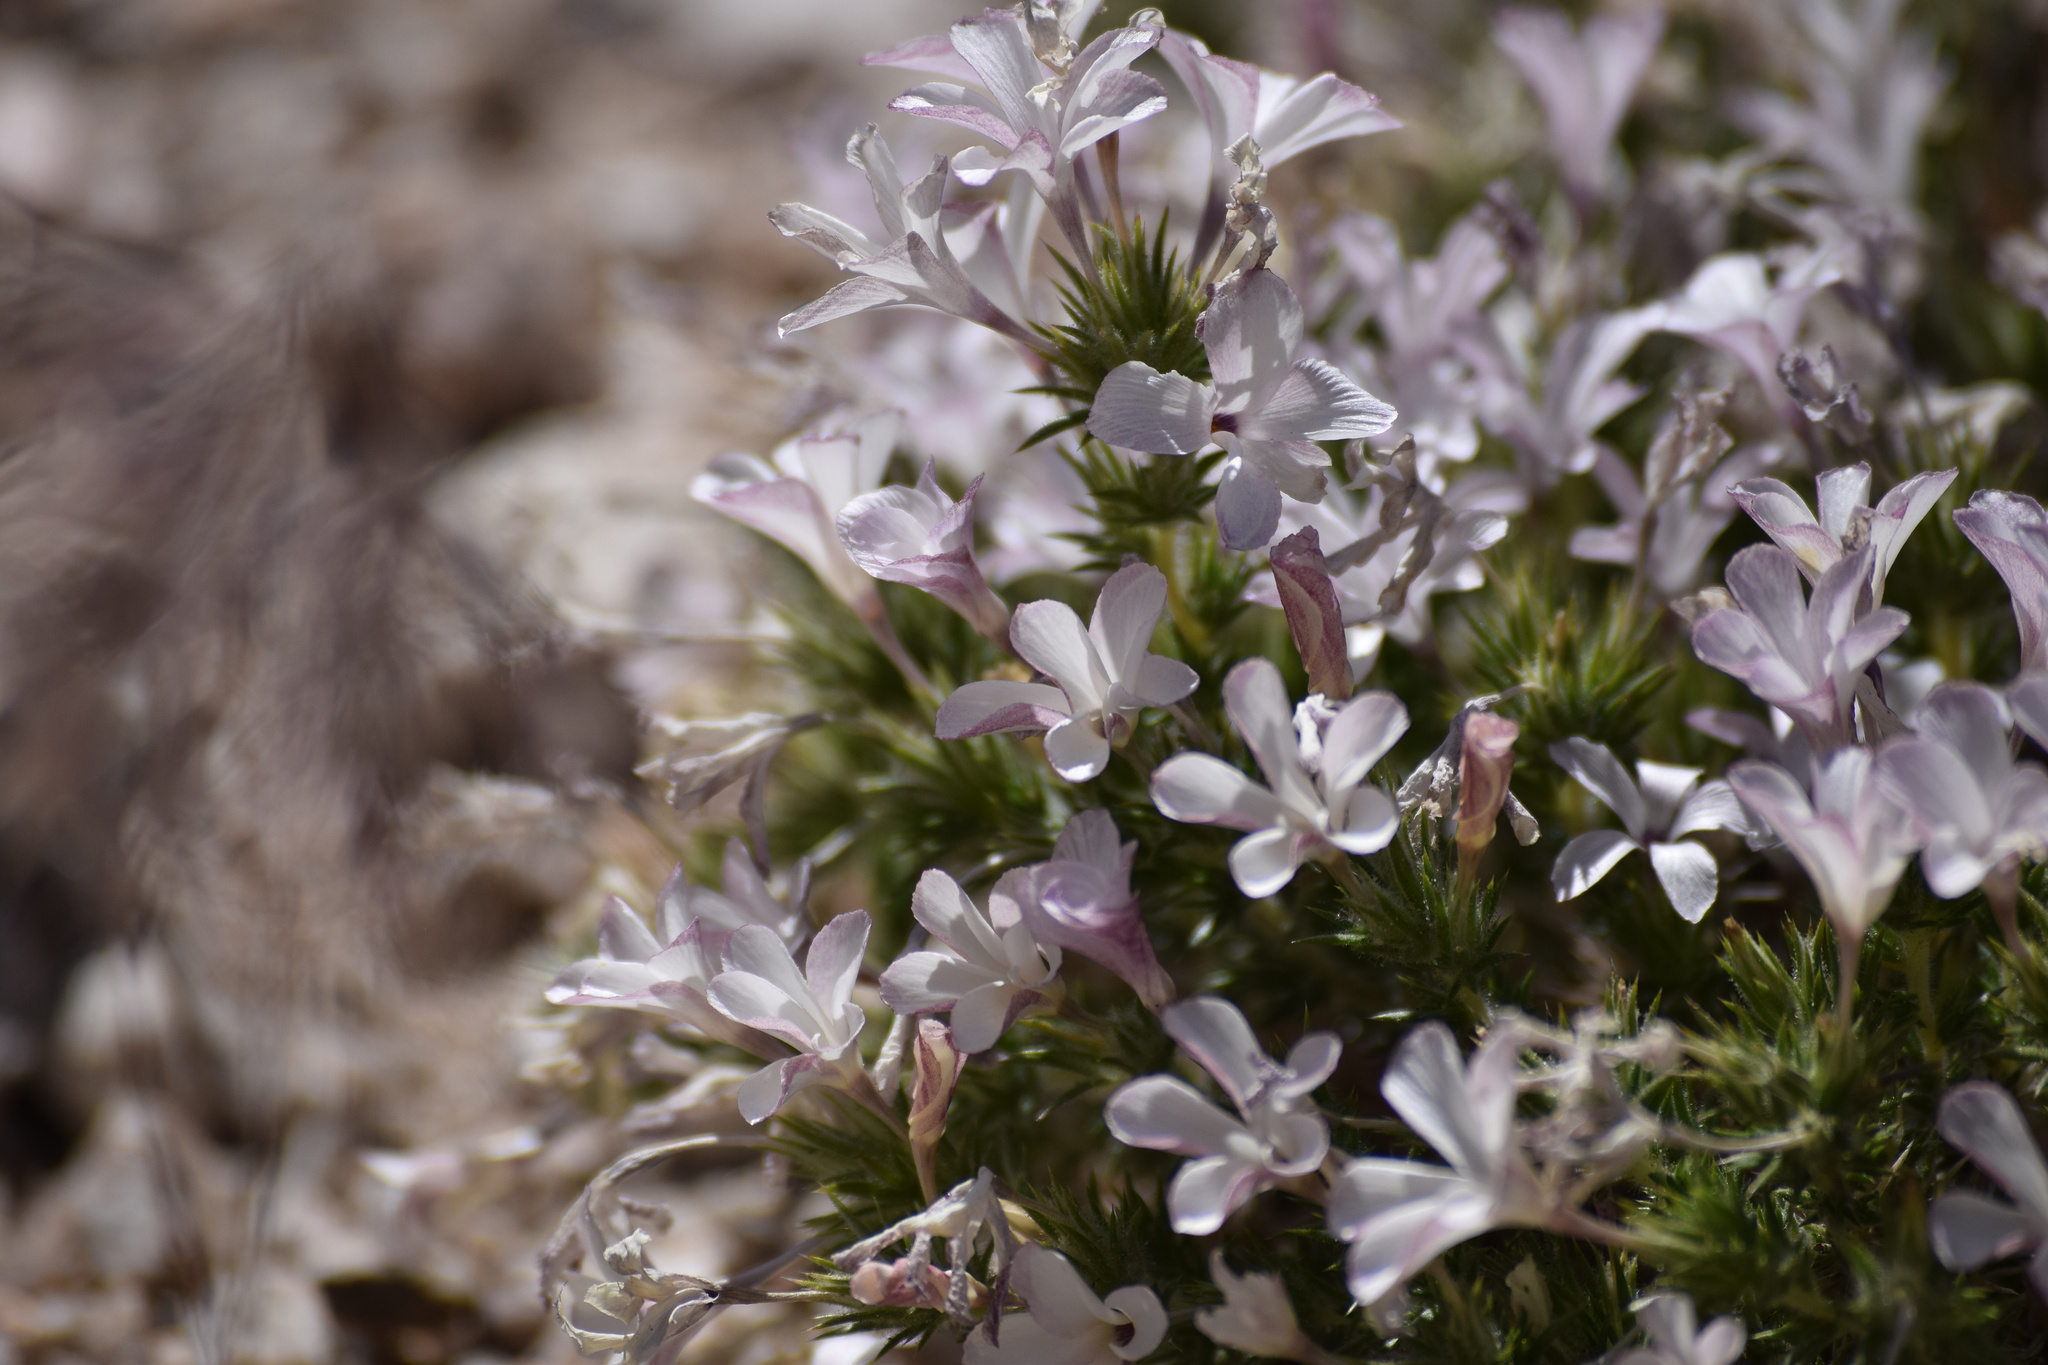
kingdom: Plantae
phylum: Tracheophyta
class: Magnoliopsida
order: Ericales
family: Polemoniaceae
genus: Linanthus
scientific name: Linanthus pungens
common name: Granite prickly phlox
